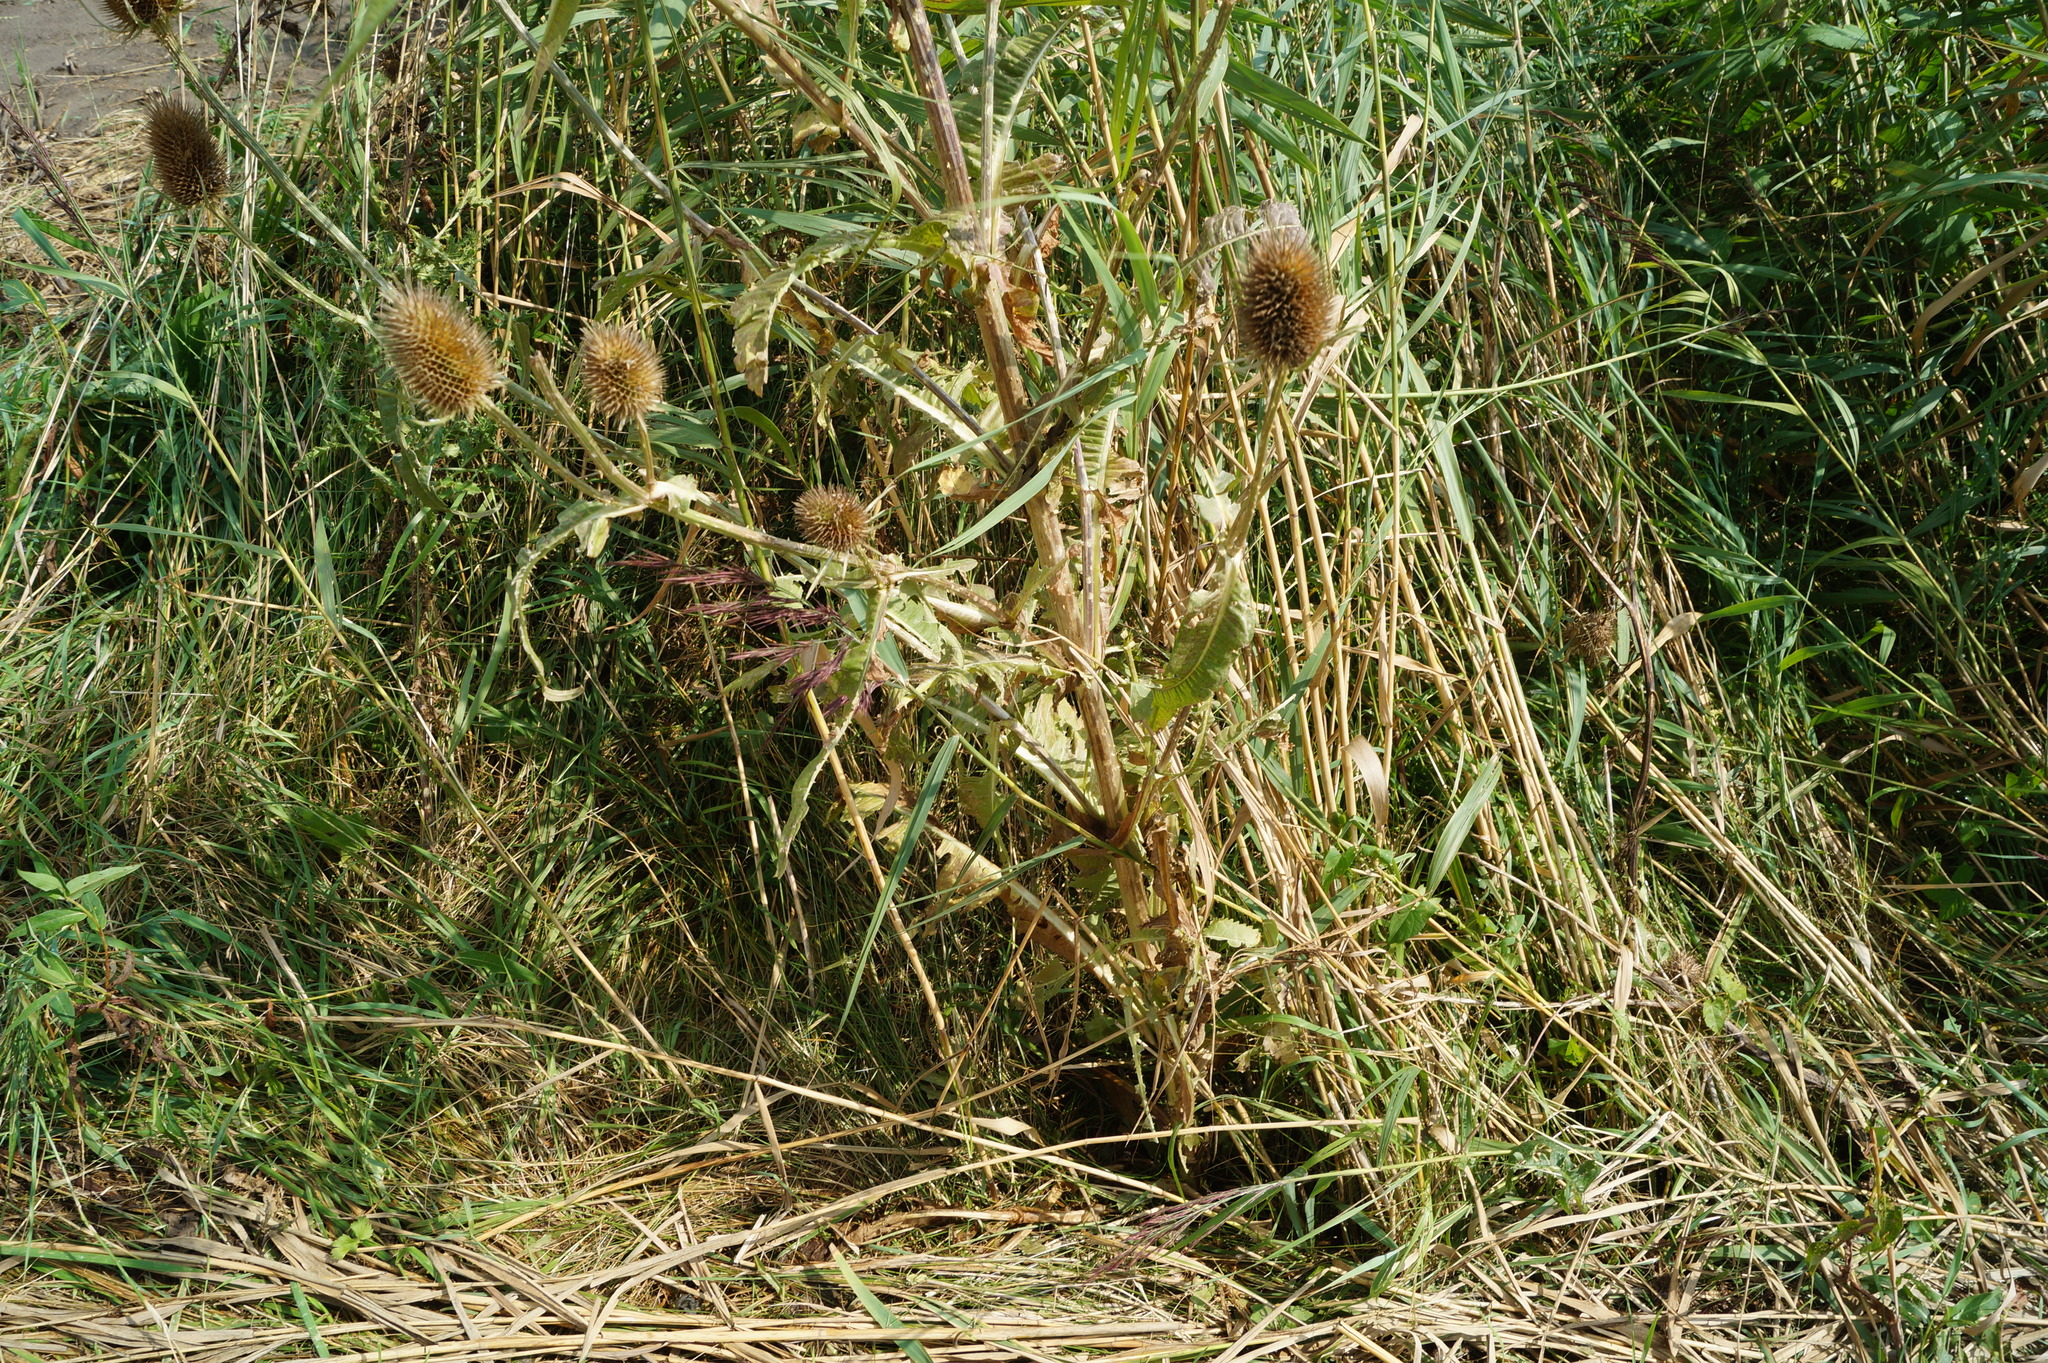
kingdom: Plantae
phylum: Tracheophyta
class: Magnoliopsida
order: Dipsacales
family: Caprifoliaceae
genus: Dipsacus
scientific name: Dipsacus fullonum
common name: Teasel
